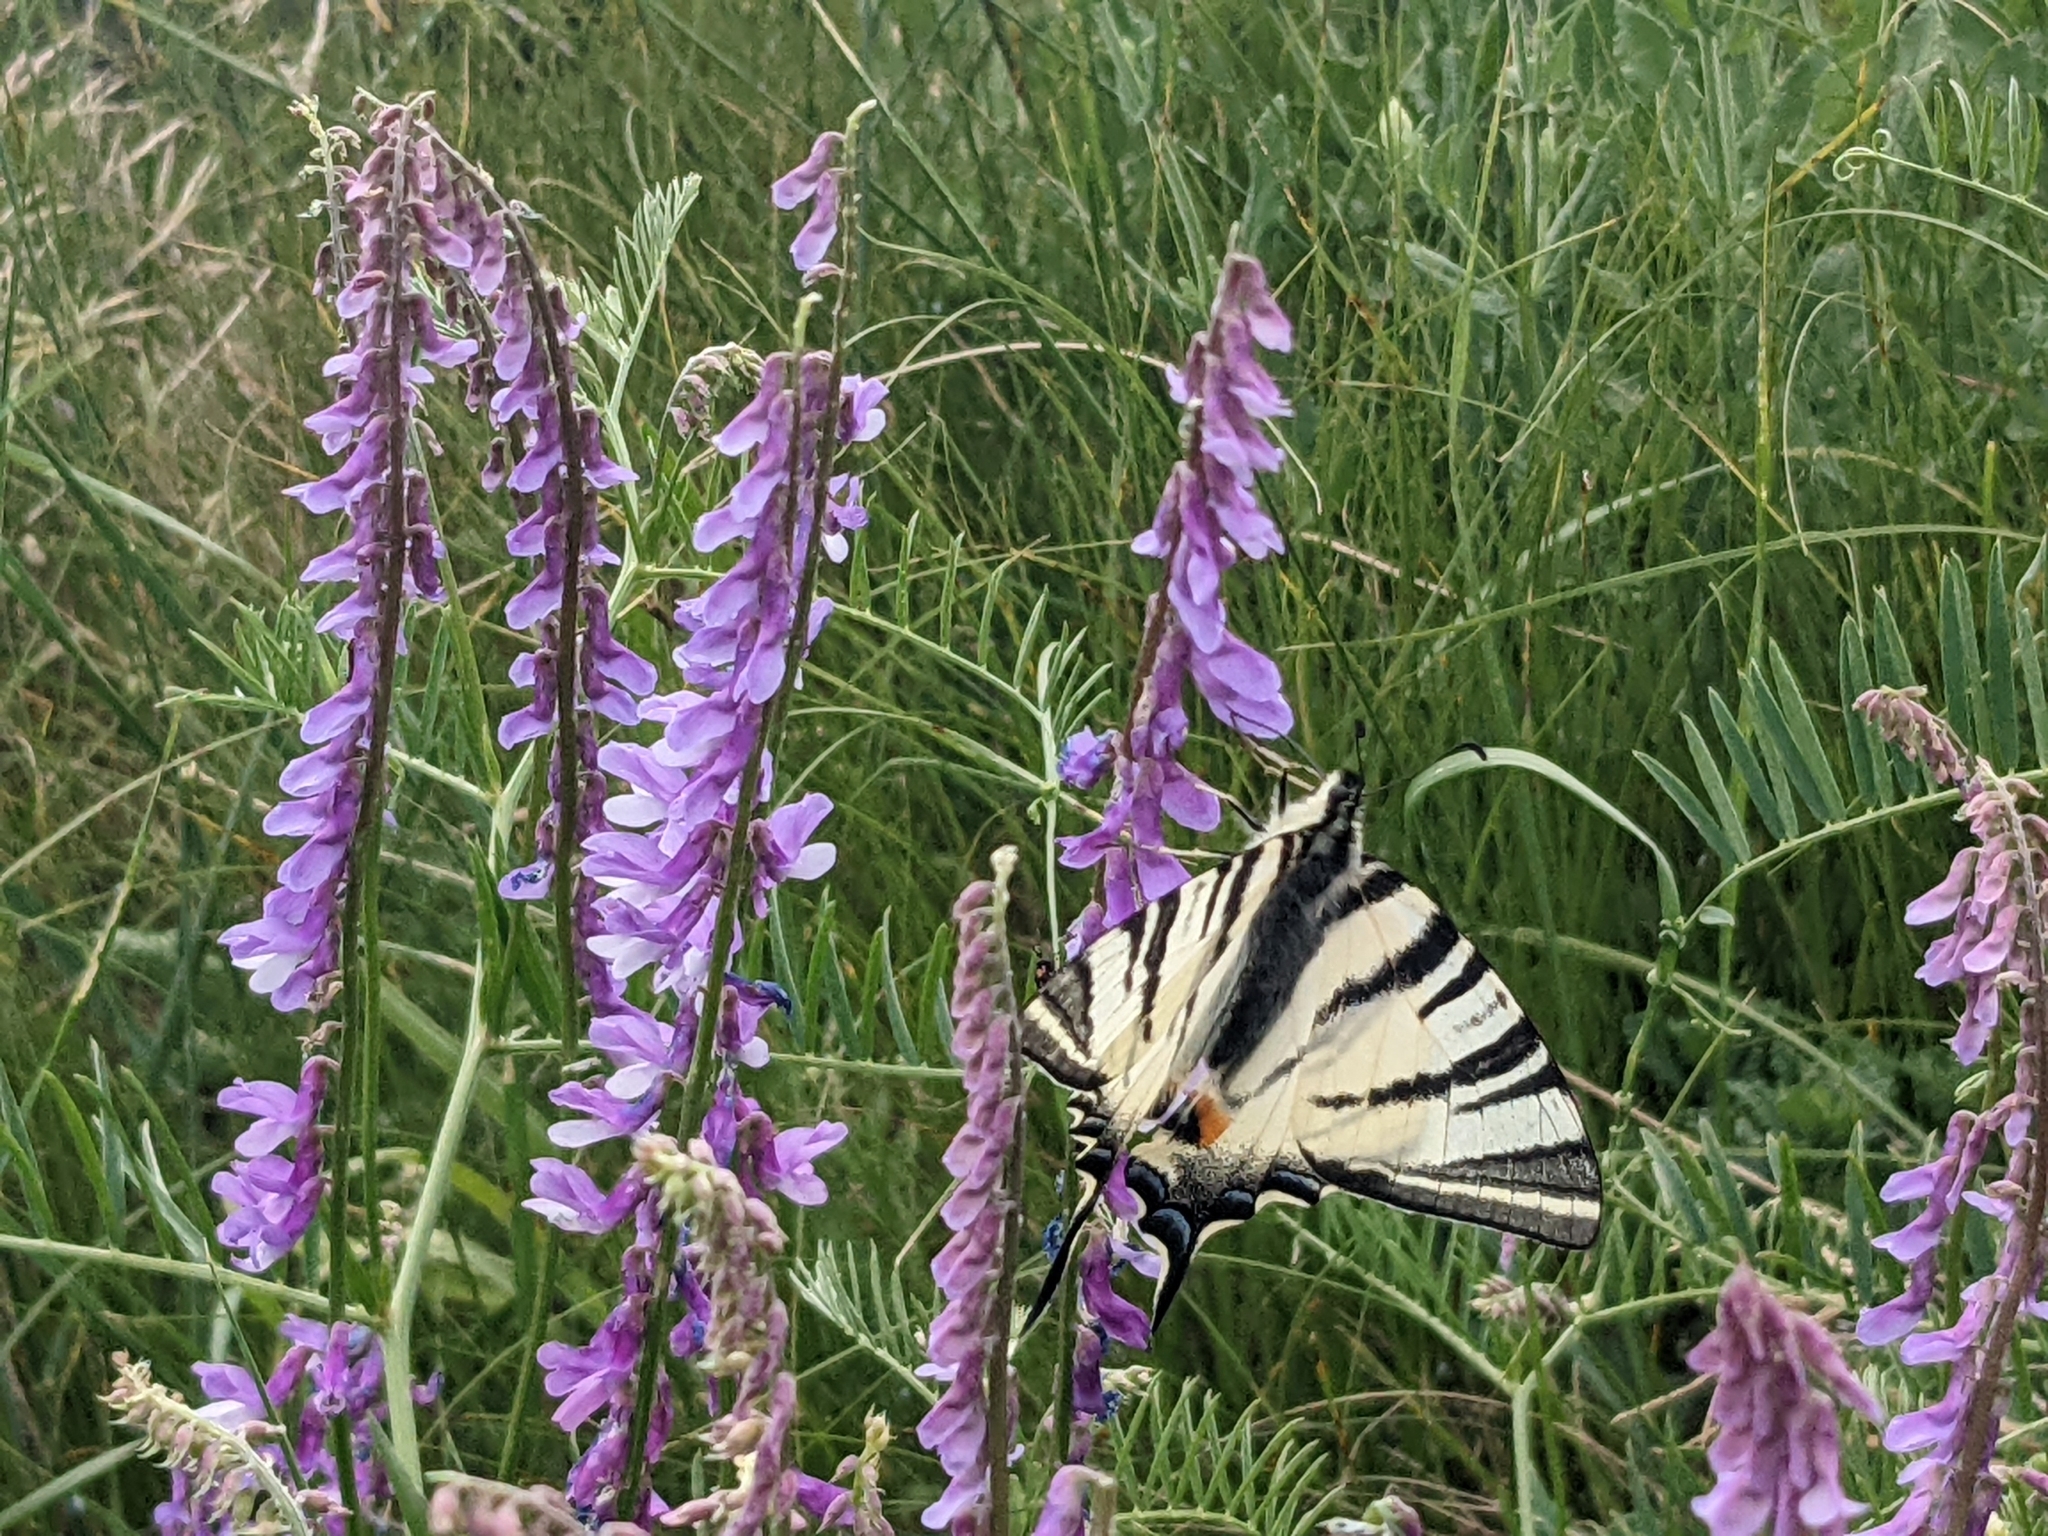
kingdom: Animalia
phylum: Arthropoda
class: Insecta
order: Lepidoptera
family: Papilionidae
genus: Iphiclides
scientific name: Iphiclides podalirius
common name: Scarce swallowtail
